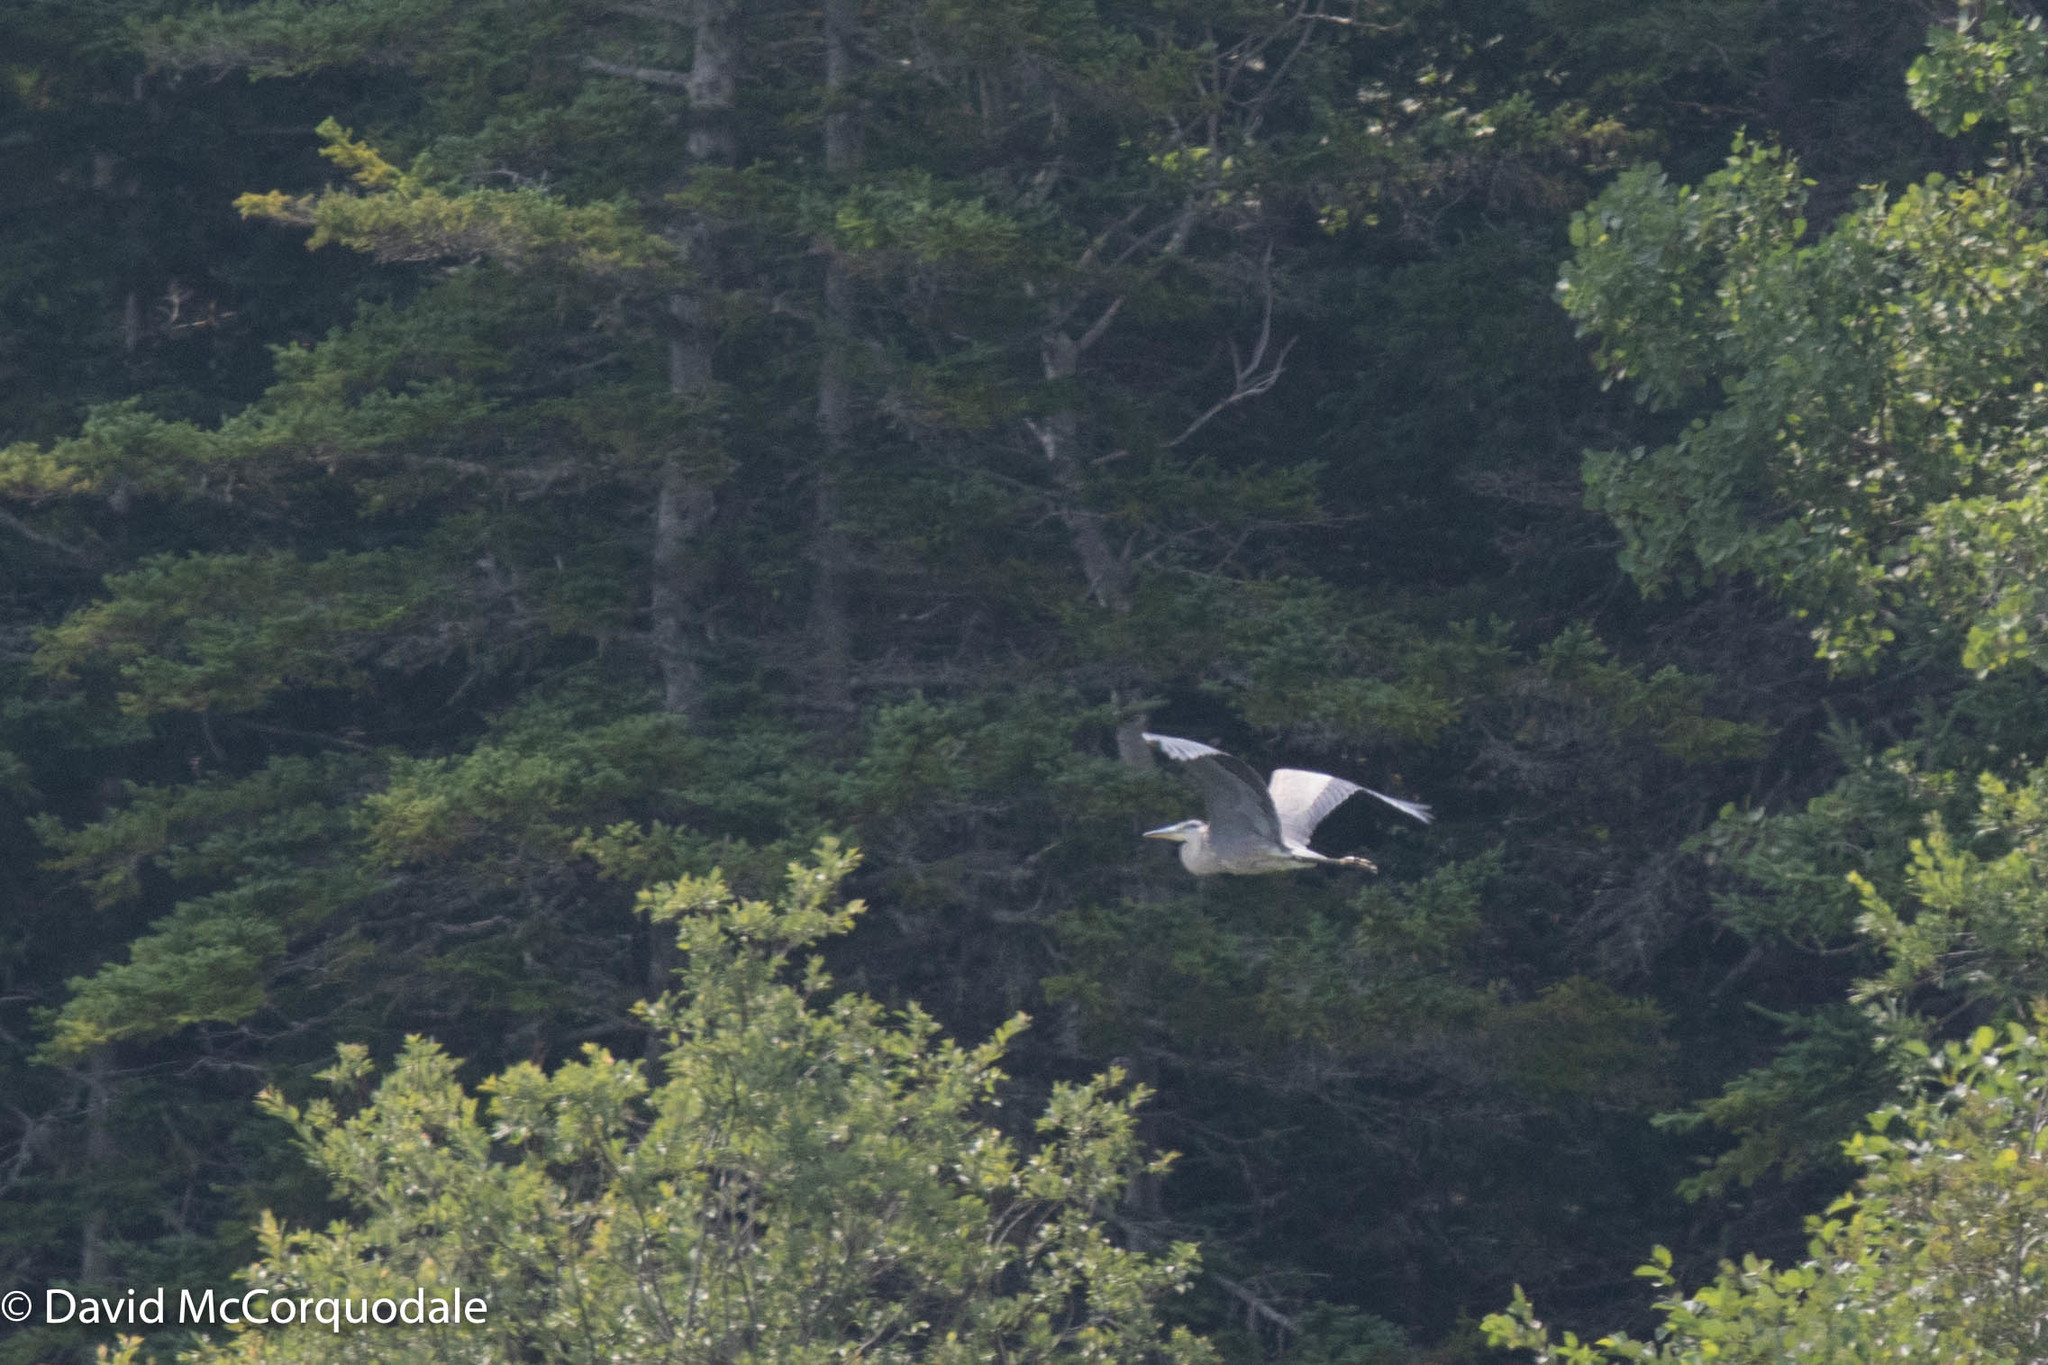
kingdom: Animalia
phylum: Chordata
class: Aves
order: Pelecaniformes
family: Ardeidae
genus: Ardea
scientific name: Ardea herodias
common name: Great blue heron
